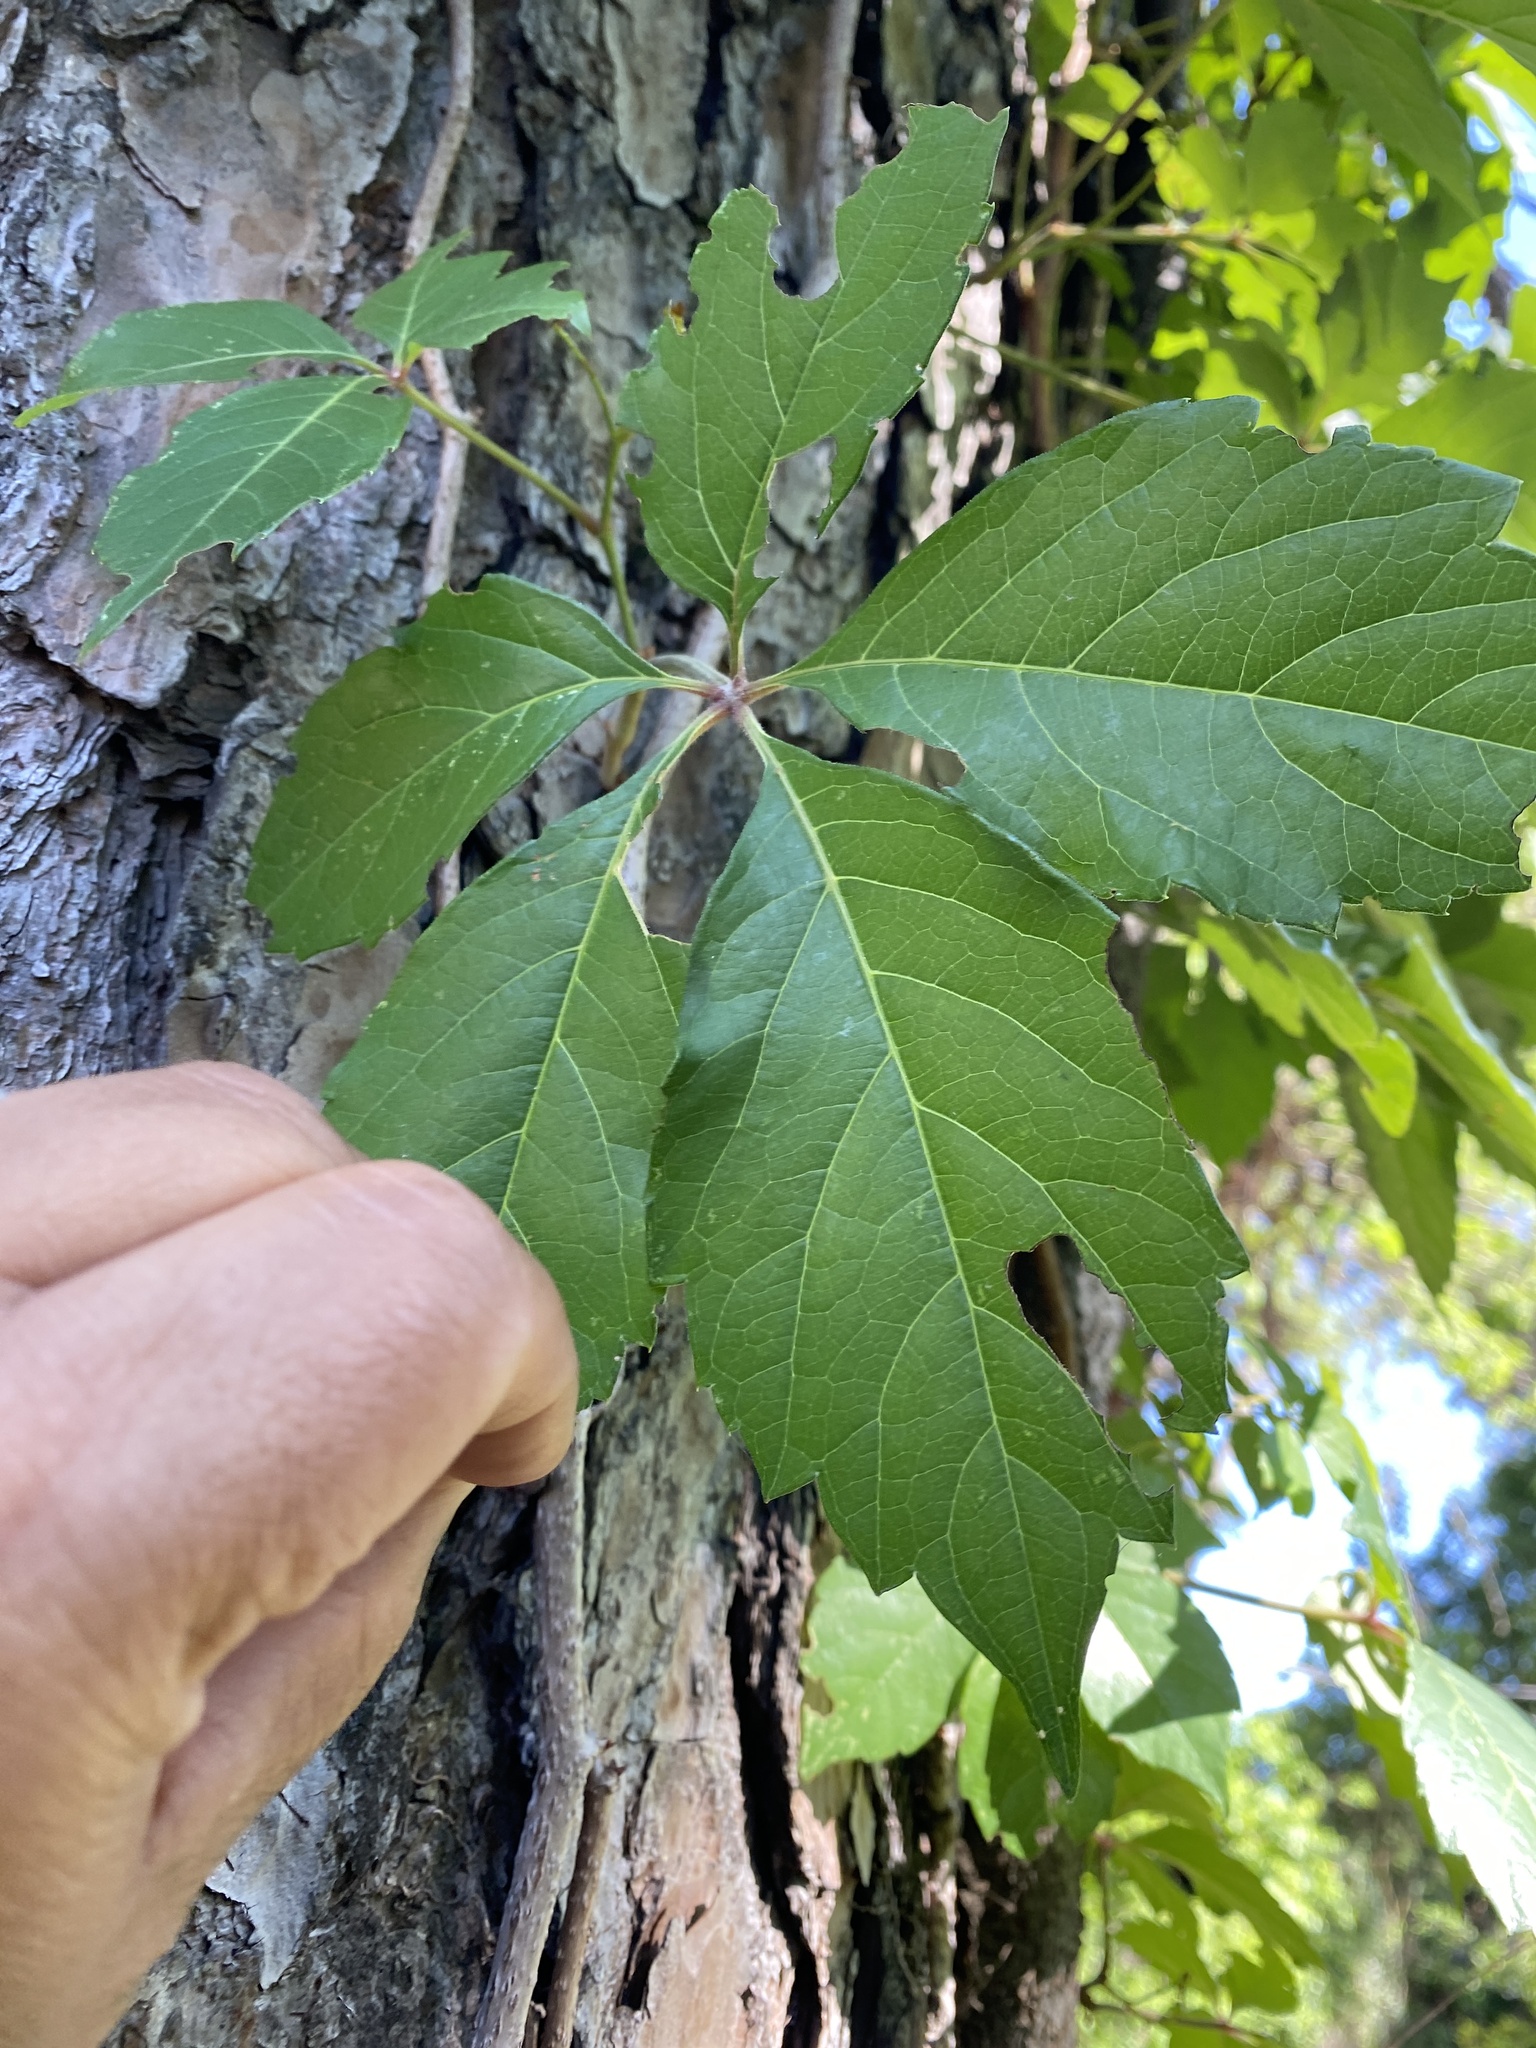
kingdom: Plantae
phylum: Tracheophyta
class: Magnoliopsida
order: Vitales
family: Vitaceae
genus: Parthenocissus
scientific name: Parthenocissus quinquefolia
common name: Virginia-creeper
